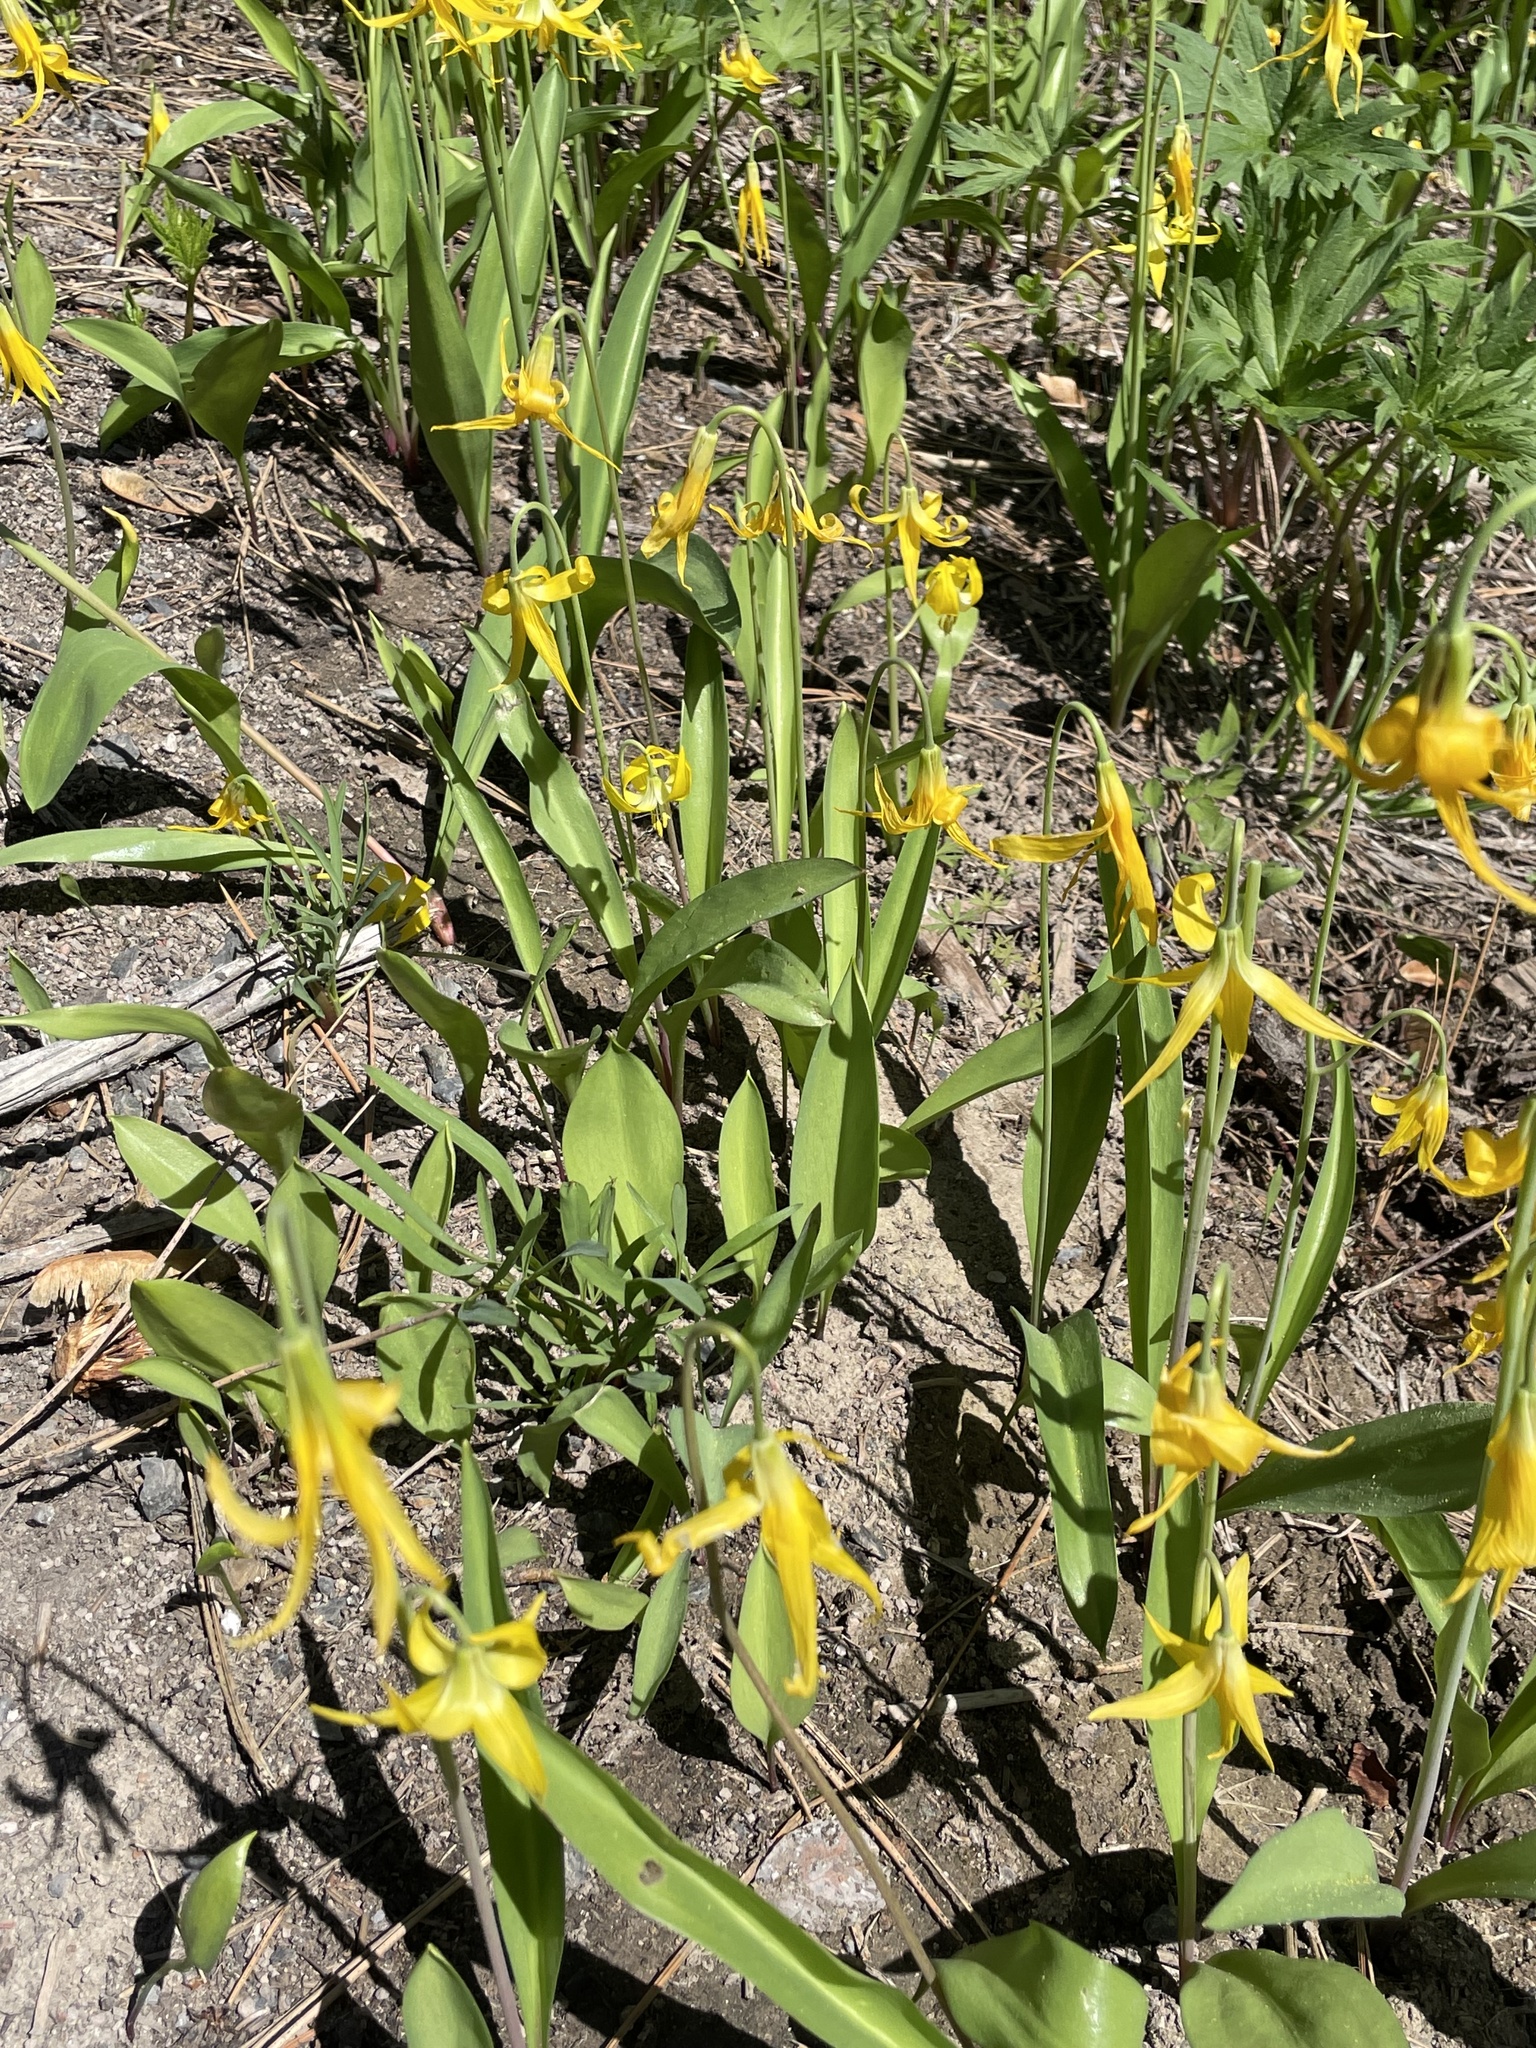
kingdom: Plantae
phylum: Tracheophyta
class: Liliopsida
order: Liliales
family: Liliaceae
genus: Fritillaria
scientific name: Fritillaria pudica
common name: Yellow fritillary
